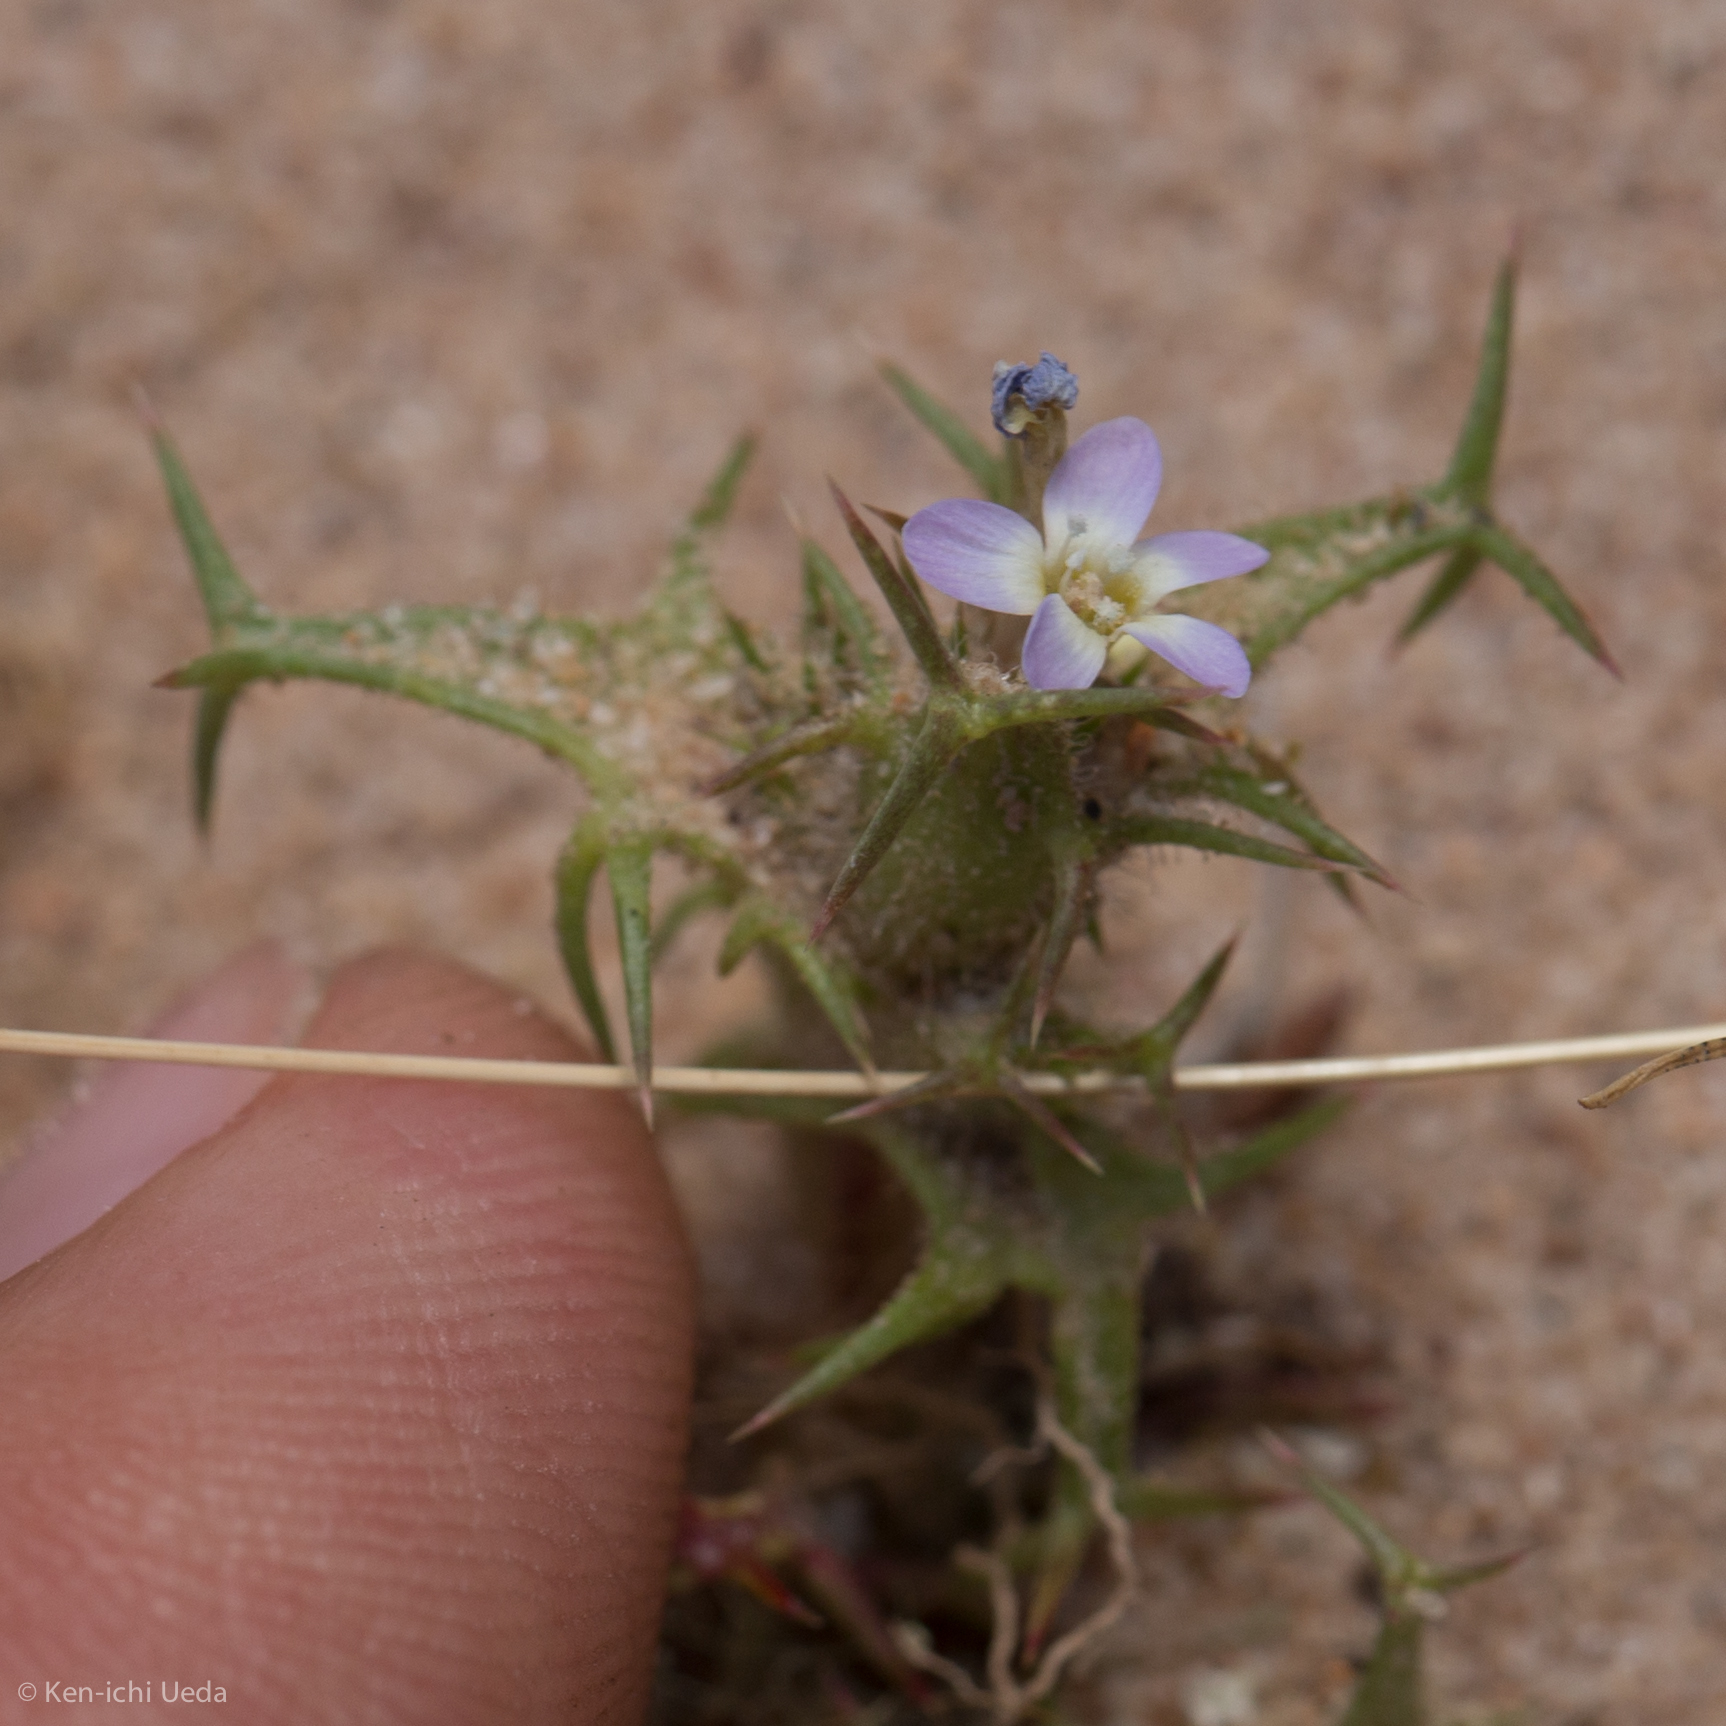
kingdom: Plantae
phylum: Tracheophyta
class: Magnoliopsida
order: Ericales
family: Polemoniaceae
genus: Navarretia
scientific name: Navarretia hamata
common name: Hooked navarretia
